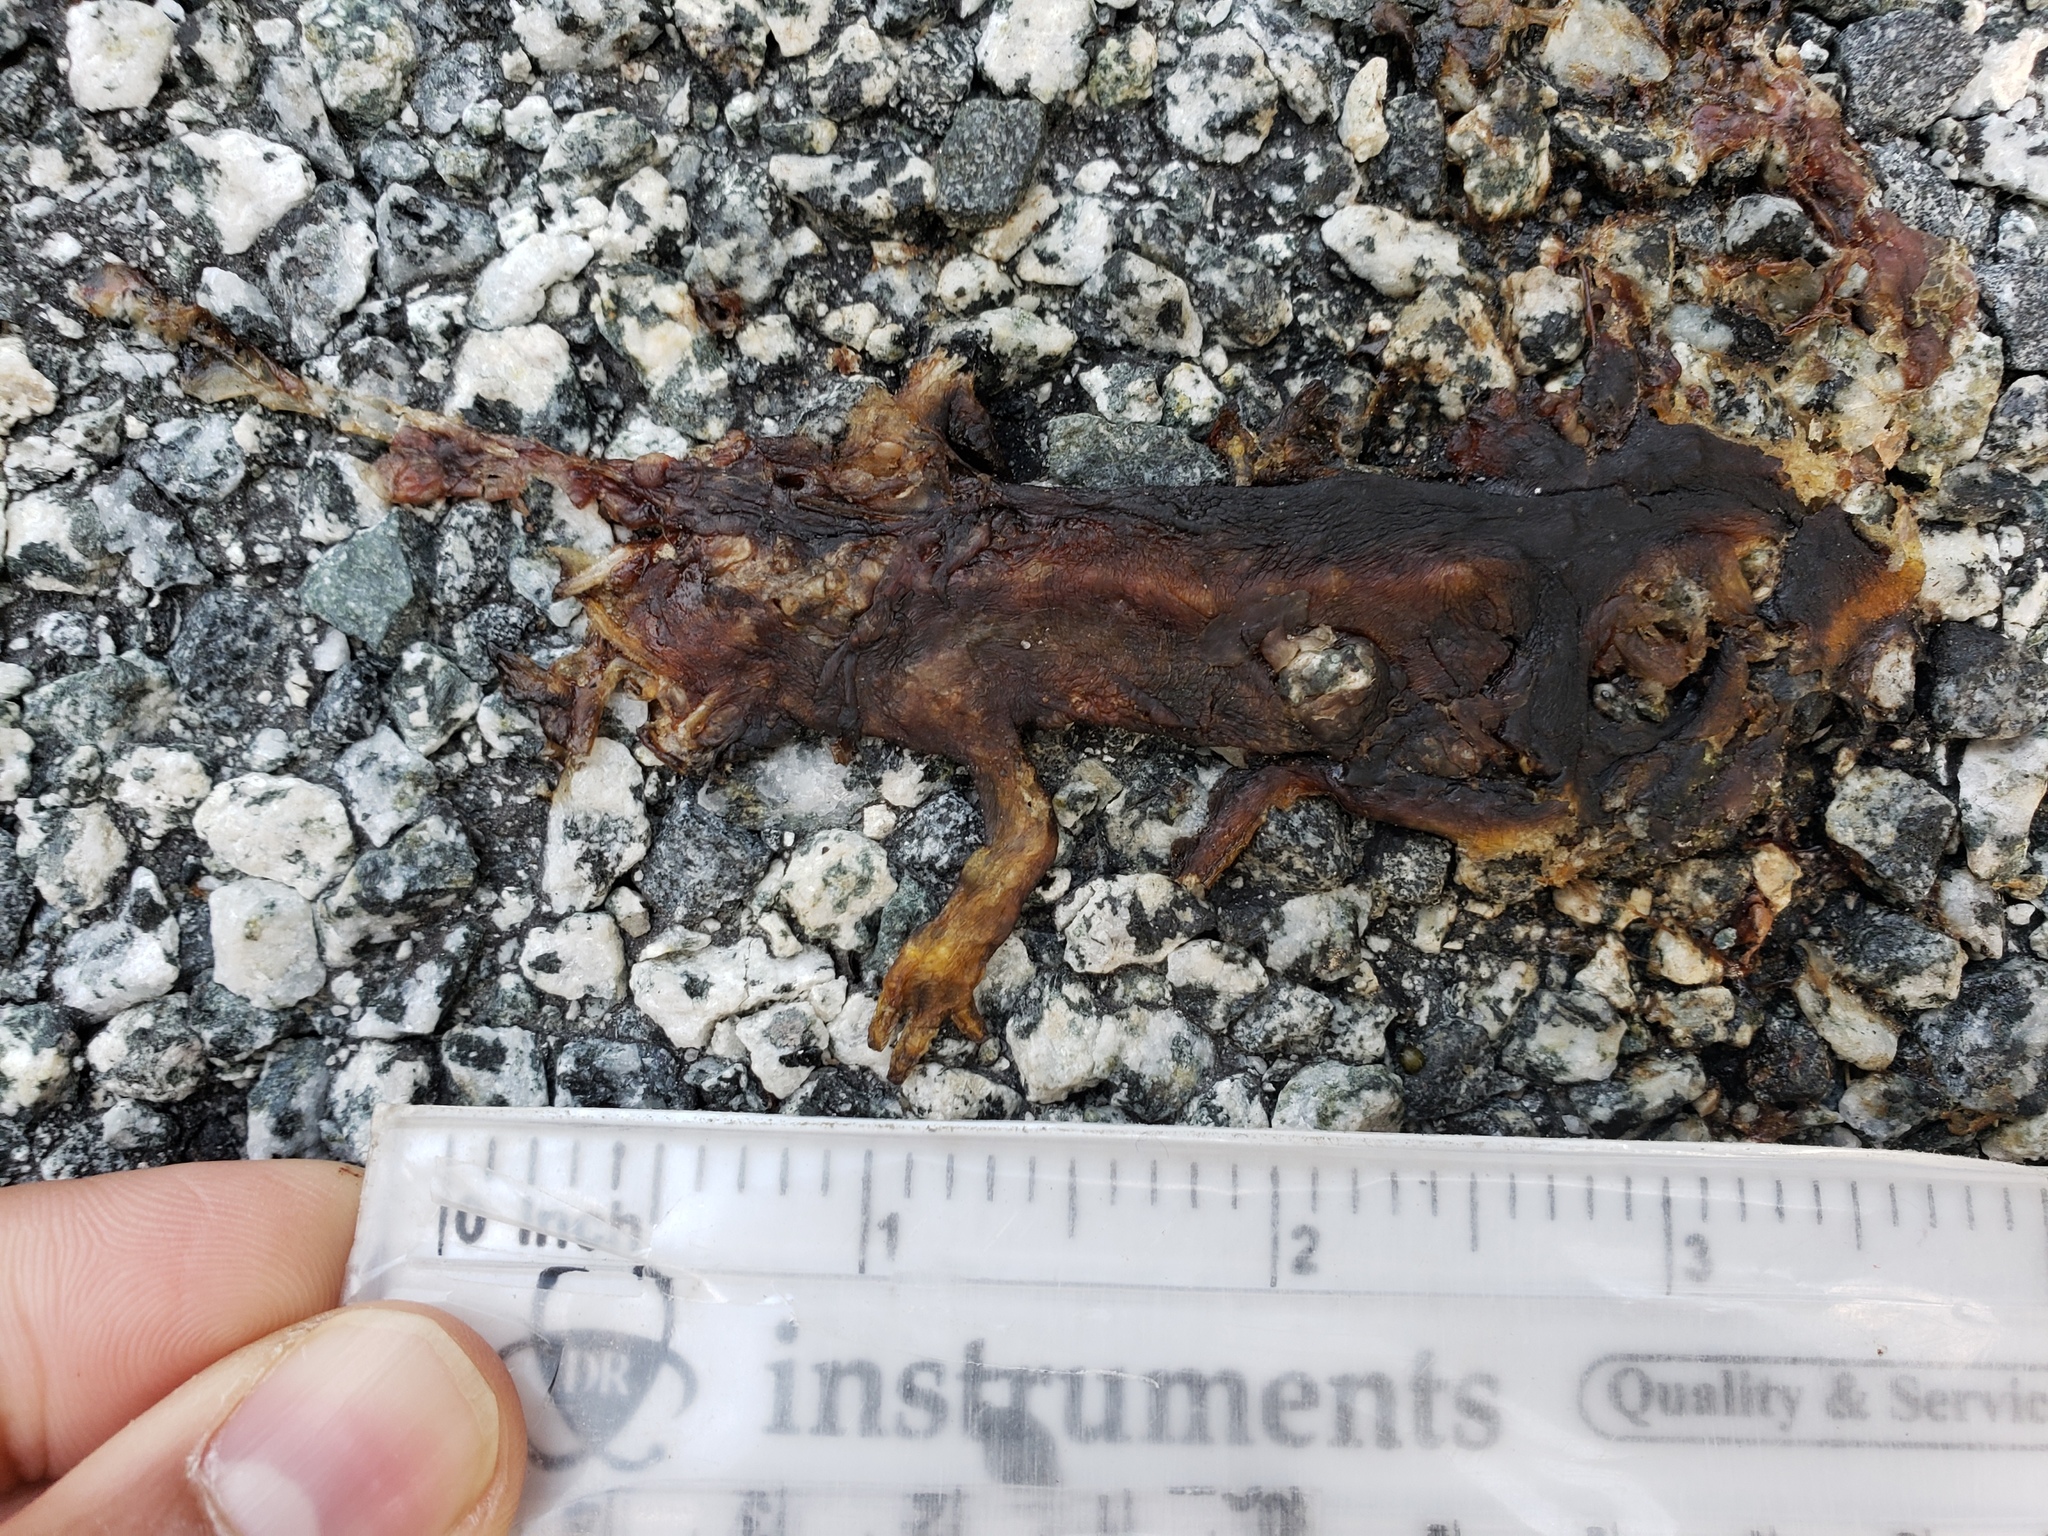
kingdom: Animalia
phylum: Chordata
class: Amphibia
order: Caudata
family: Salamandridae
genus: Taricha
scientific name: Taricha
